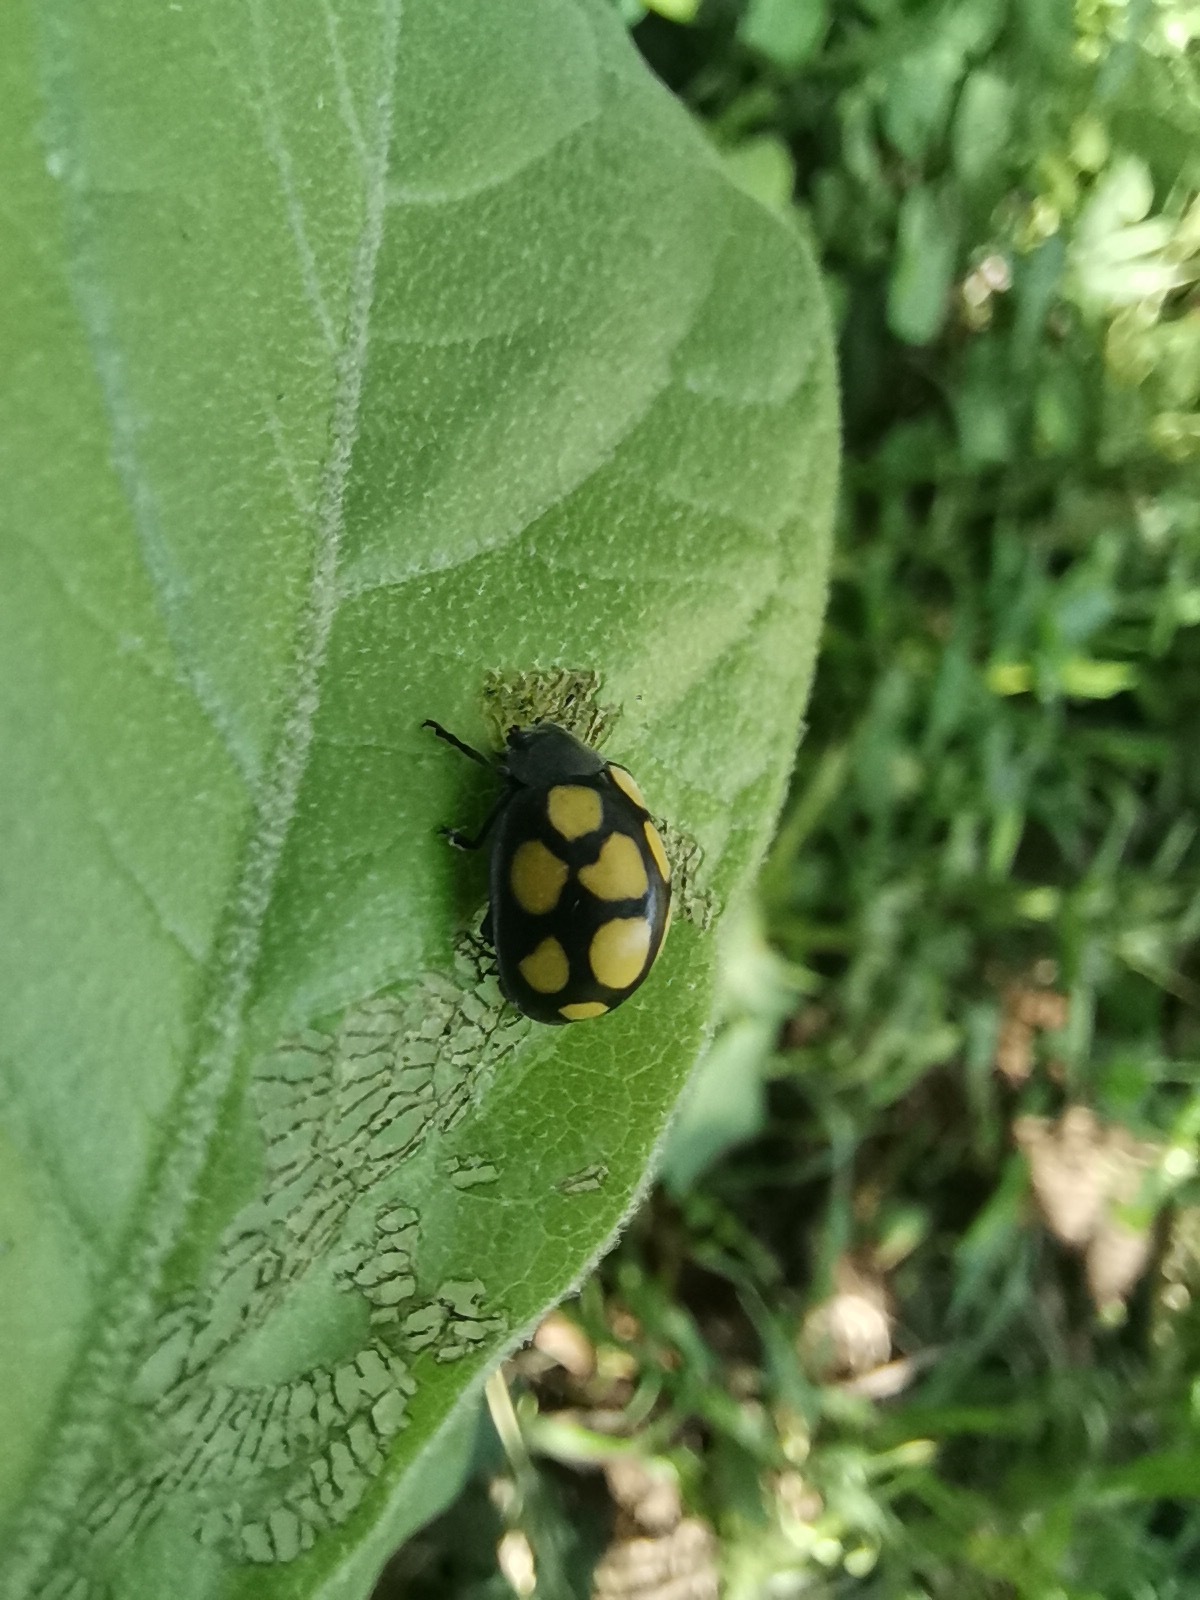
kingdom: Animalia
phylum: Arthropoda
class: Insecta
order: Coleoptera
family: Coccinellidae
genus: Epilachna
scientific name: Epilachna
